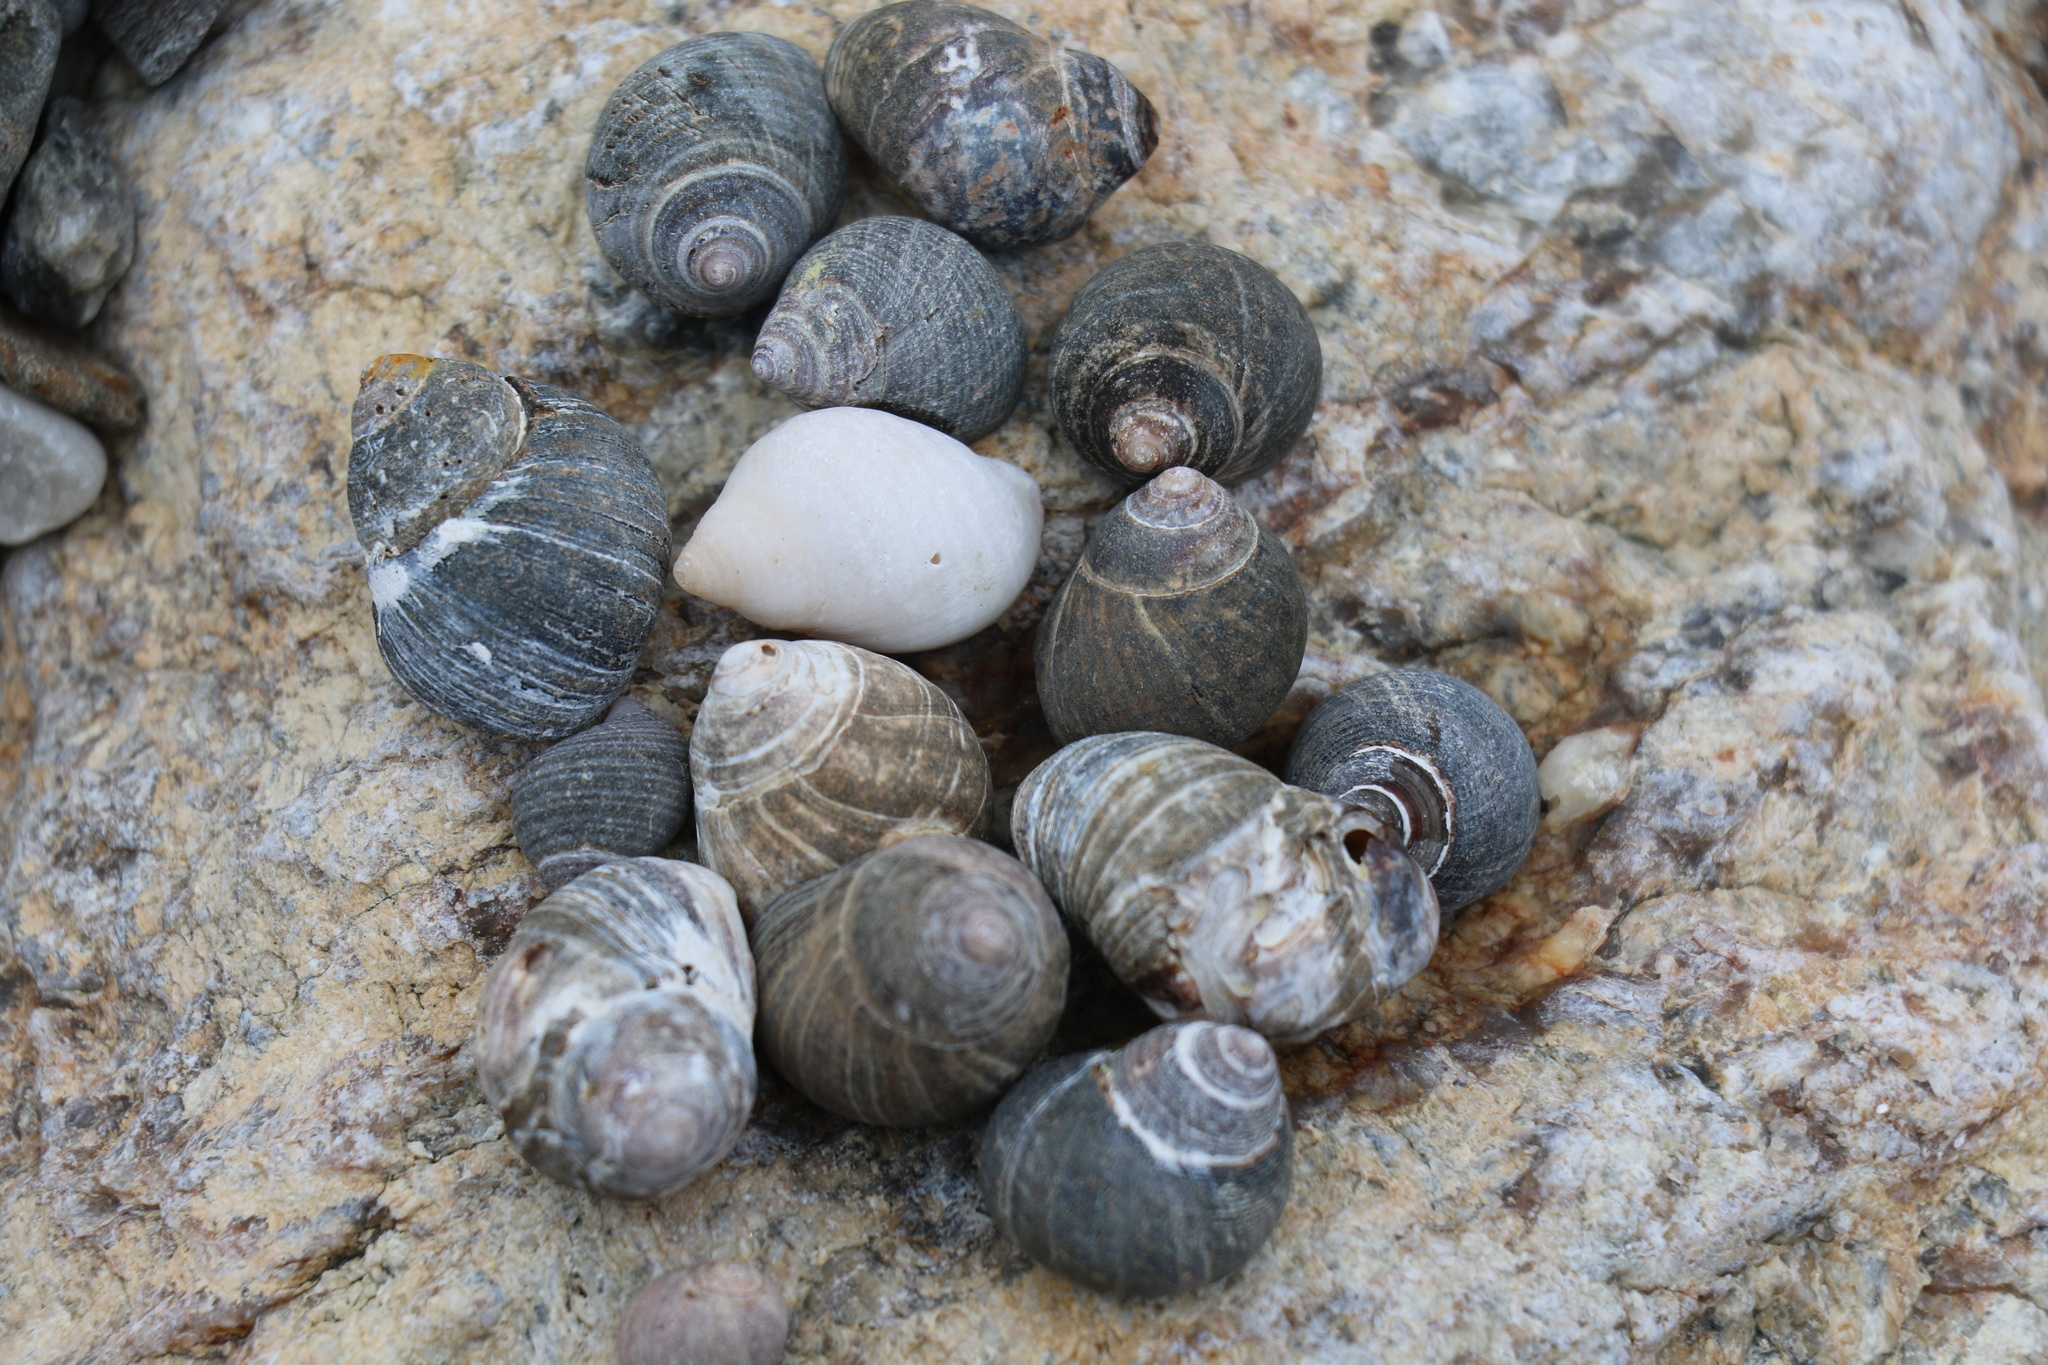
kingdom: Animalia
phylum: Mollusca
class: Gastropoda
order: Littorinimorpha
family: Littorinidae
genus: Littorina
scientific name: Littorina littorea
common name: Common periwinkle
